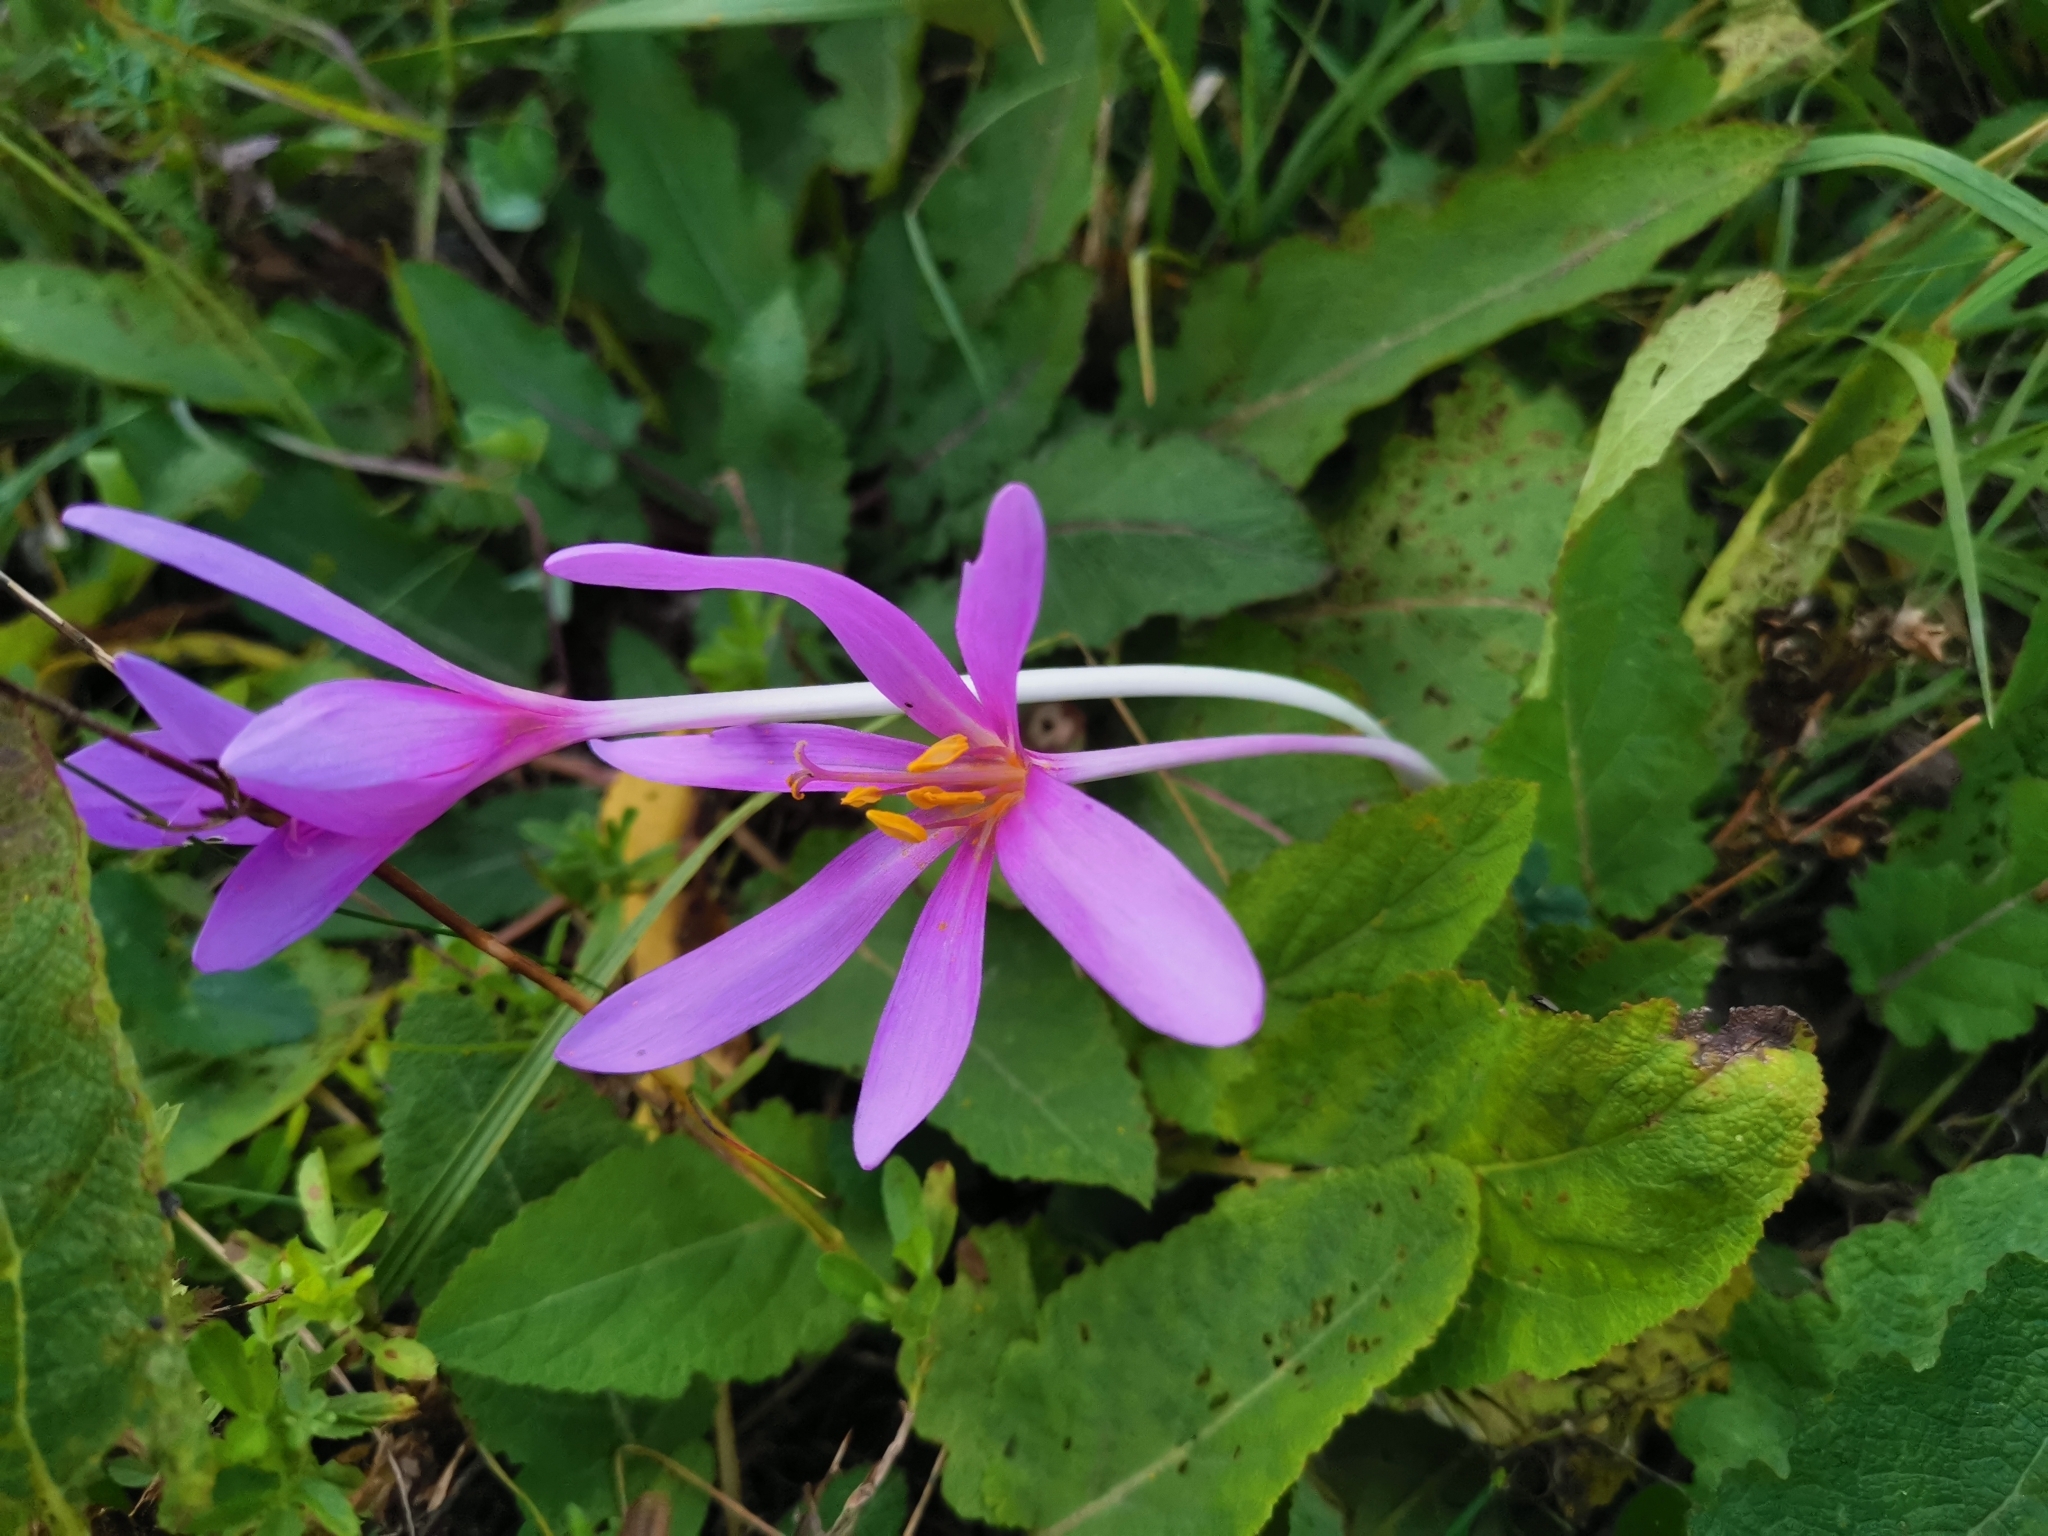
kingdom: Plantae
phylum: Tracheophyta
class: Liliopsida
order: Liliales
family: Colchicaceae
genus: Colchicum
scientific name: Colchicum autumnale
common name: Autumn crocus
